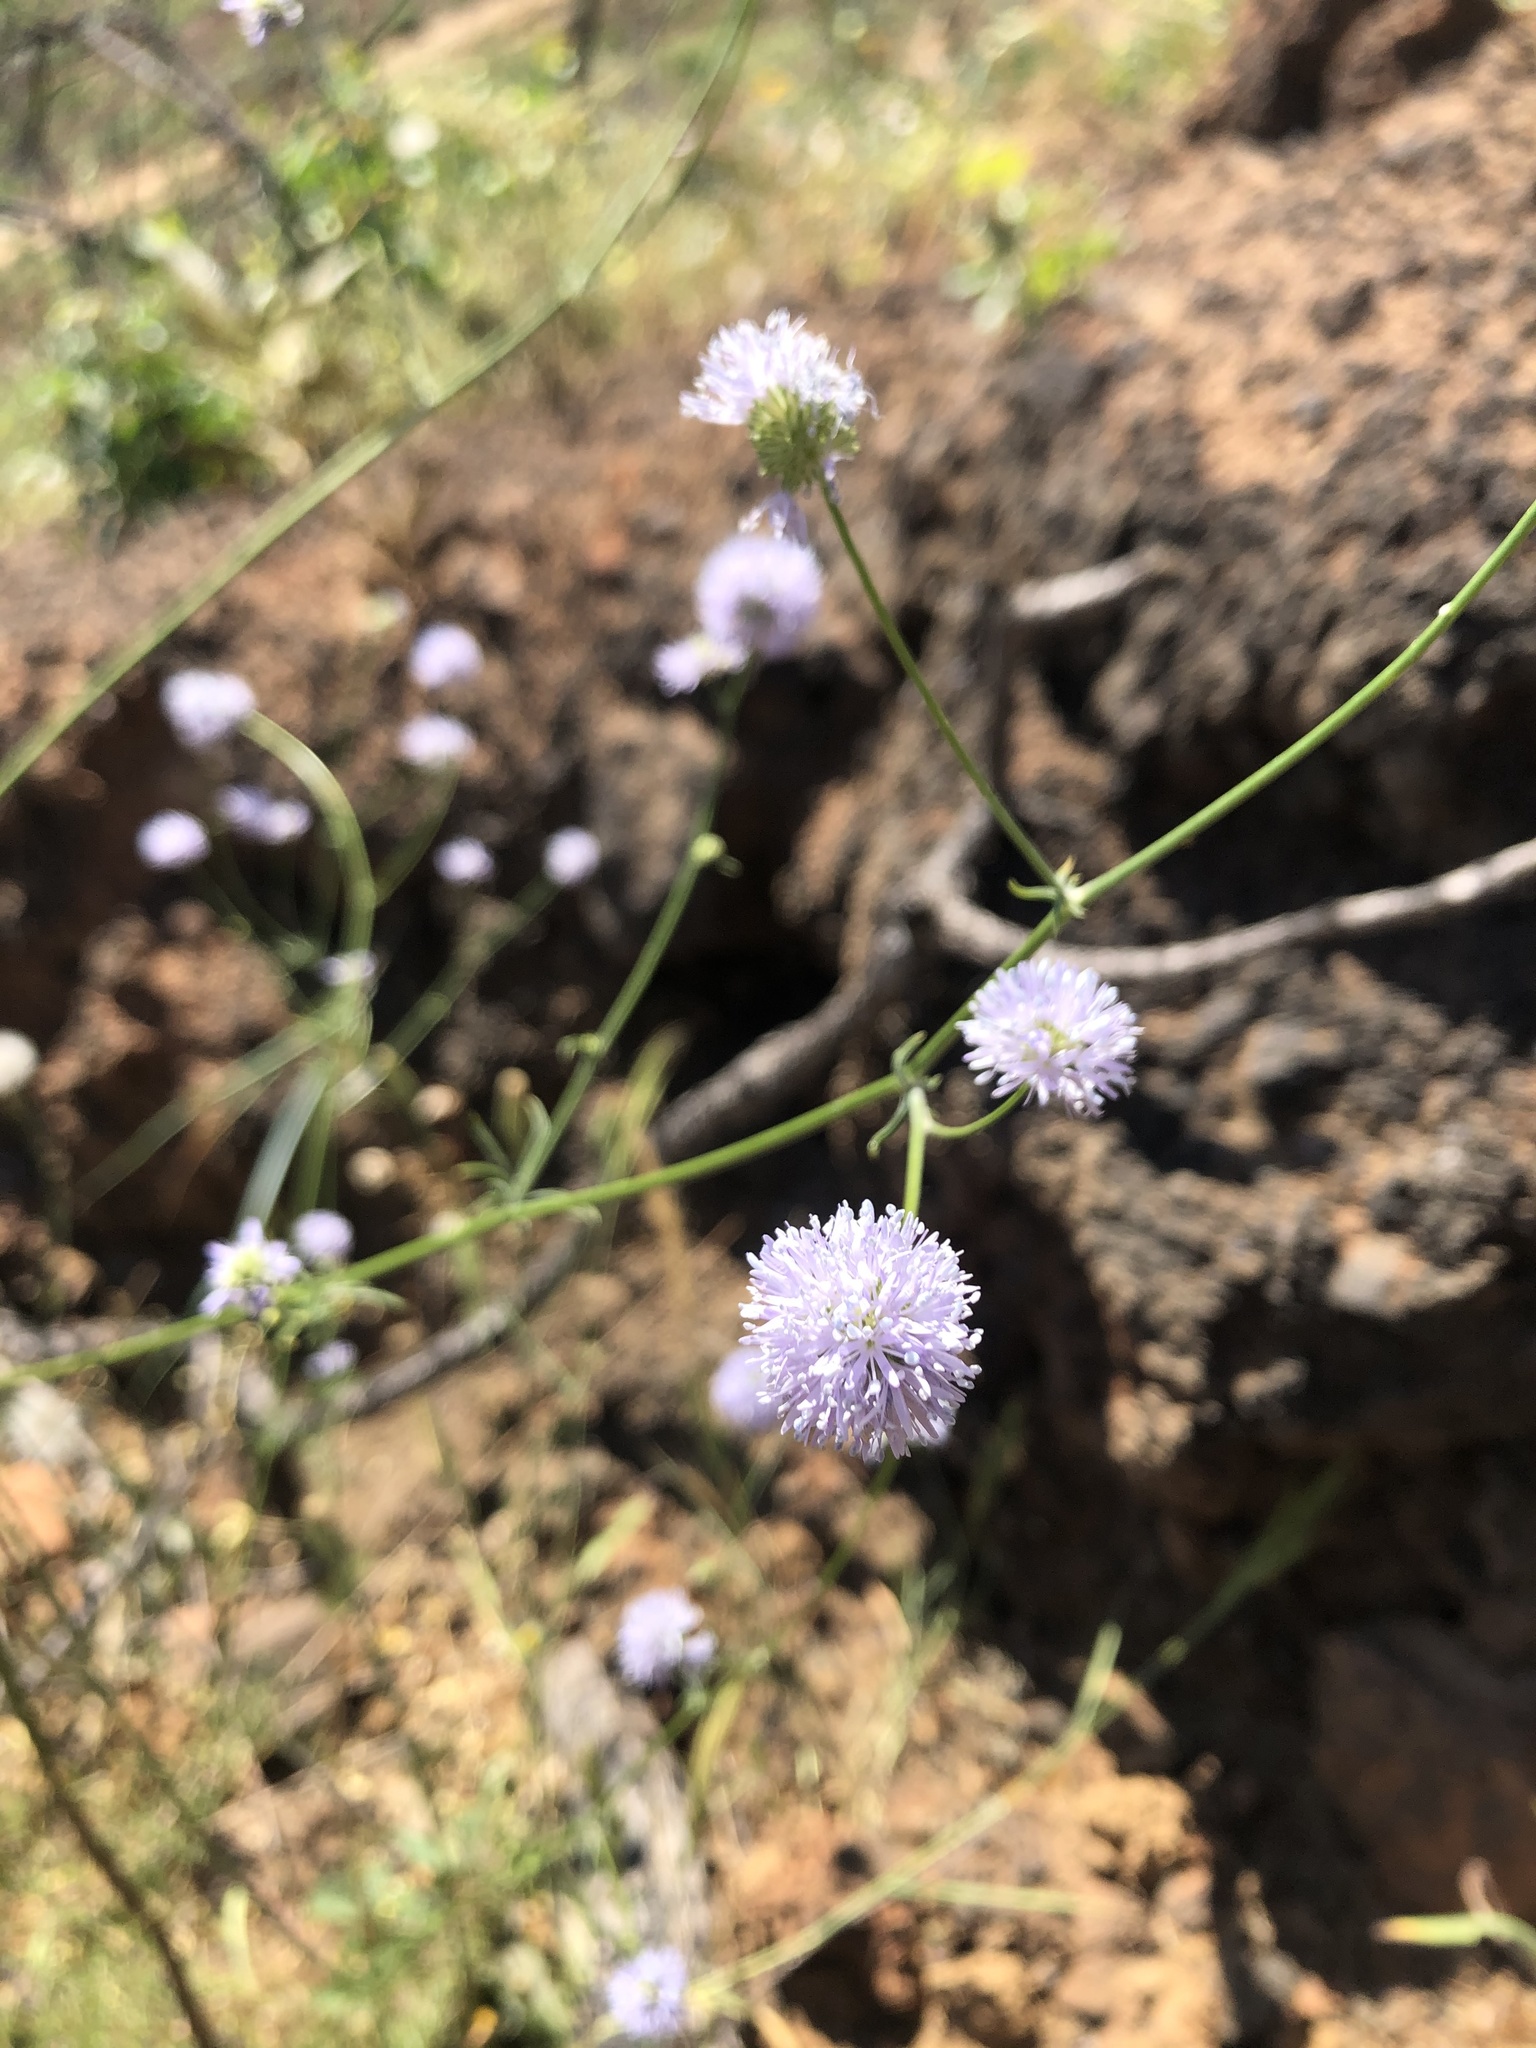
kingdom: Plantae
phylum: Tracheophyta
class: Magnoliopsida
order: Ericales
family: Polemoniaceae
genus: Gilia
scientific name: Gilia capitata
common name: Bluehead gilia
